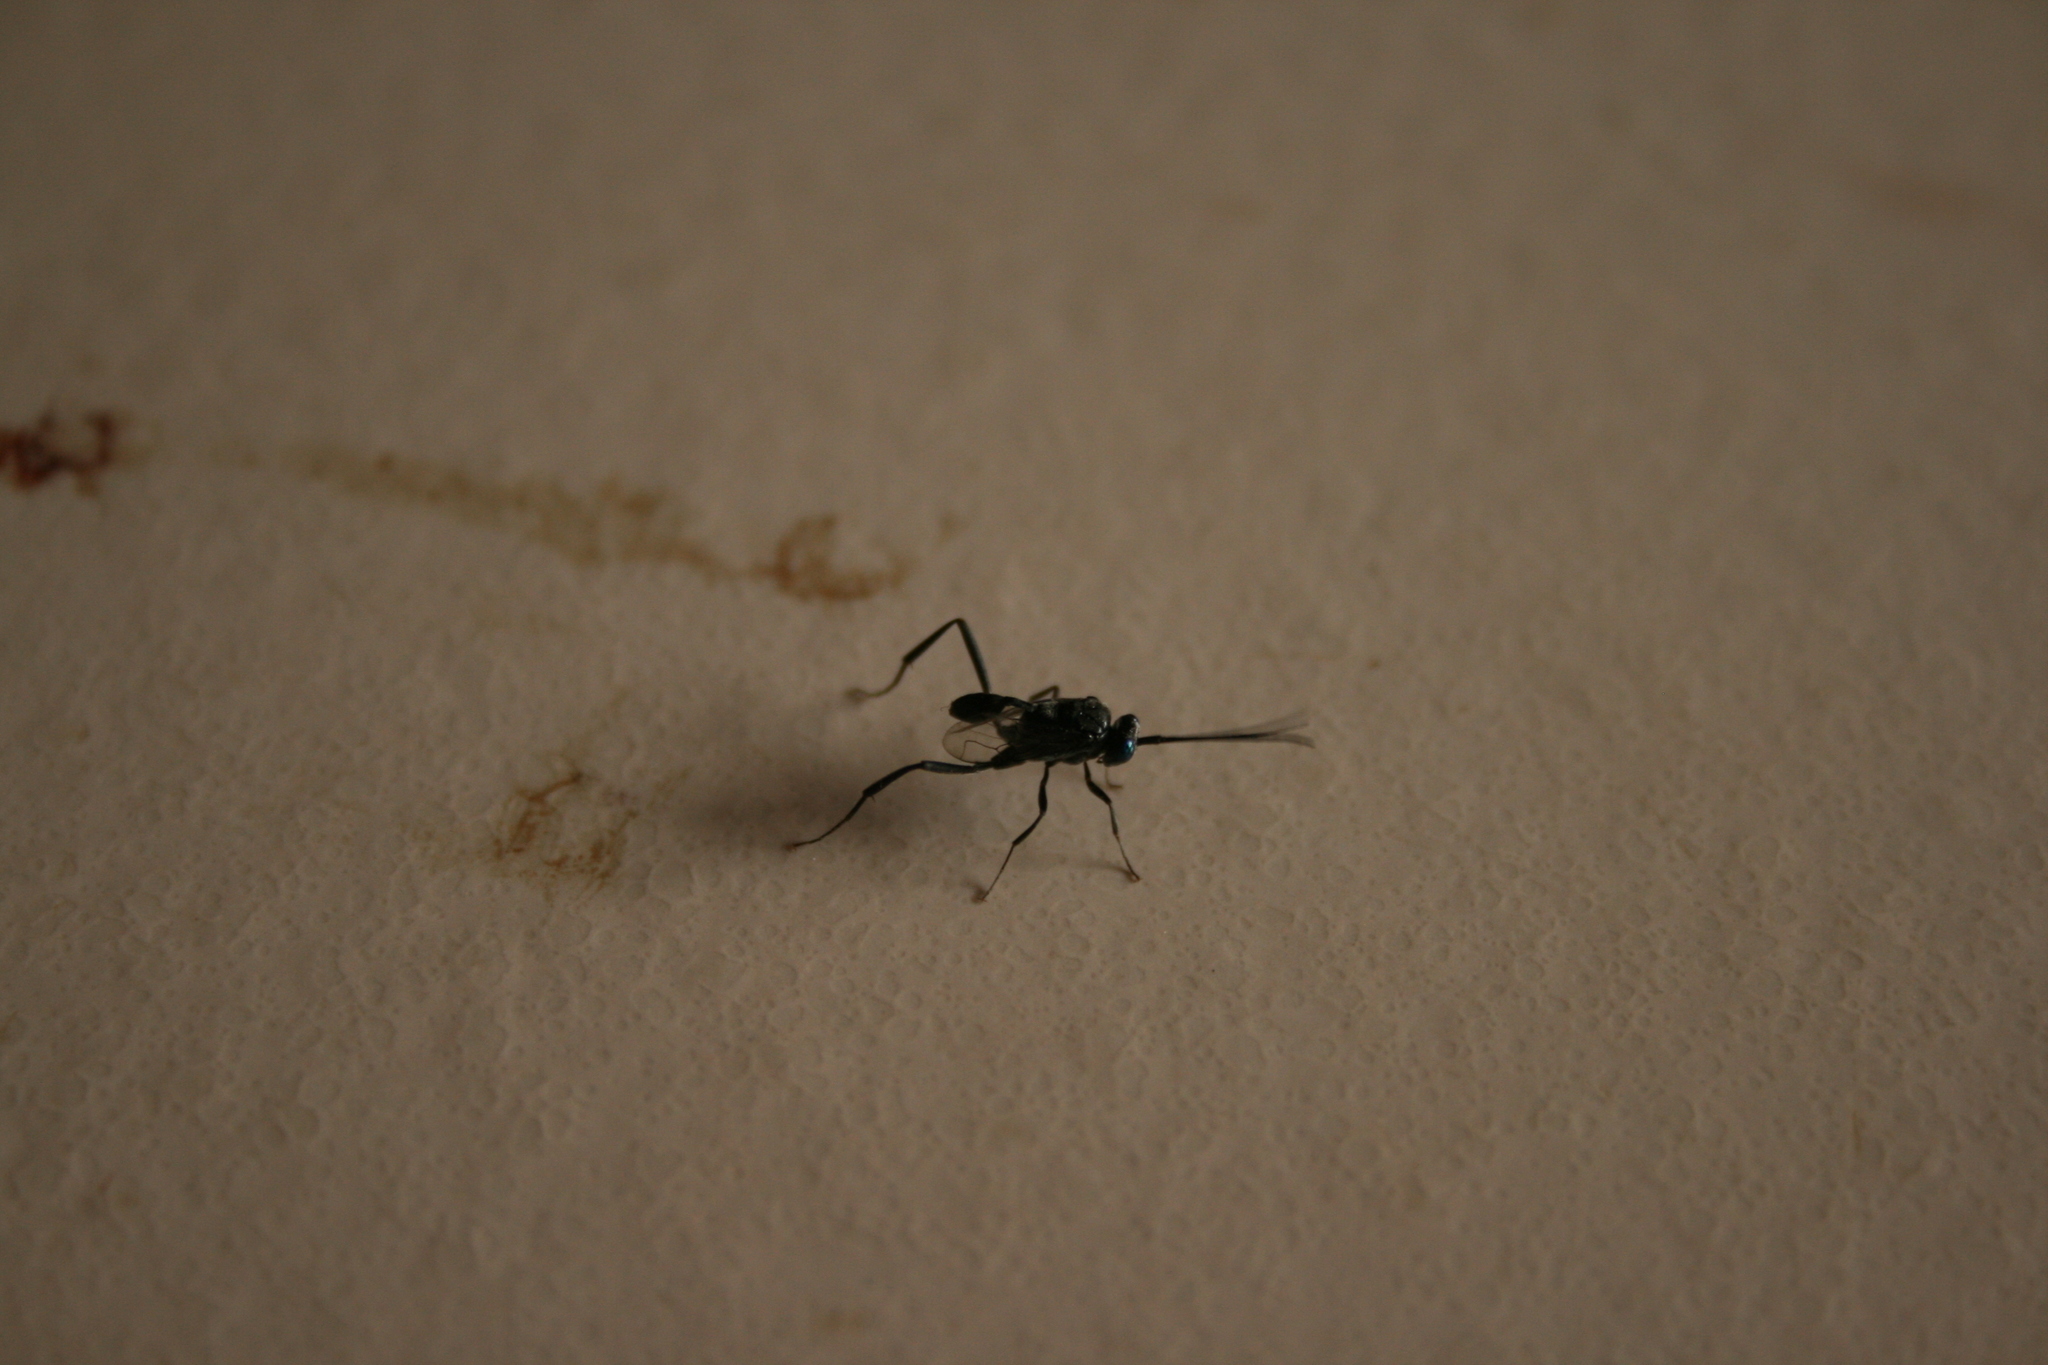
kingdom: Animalia
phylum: Arthropoda
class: Insecta
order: Hymenoptera
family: Evaniidae
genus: Evania
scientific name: Evania appendigaster
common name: Ensign wasp
